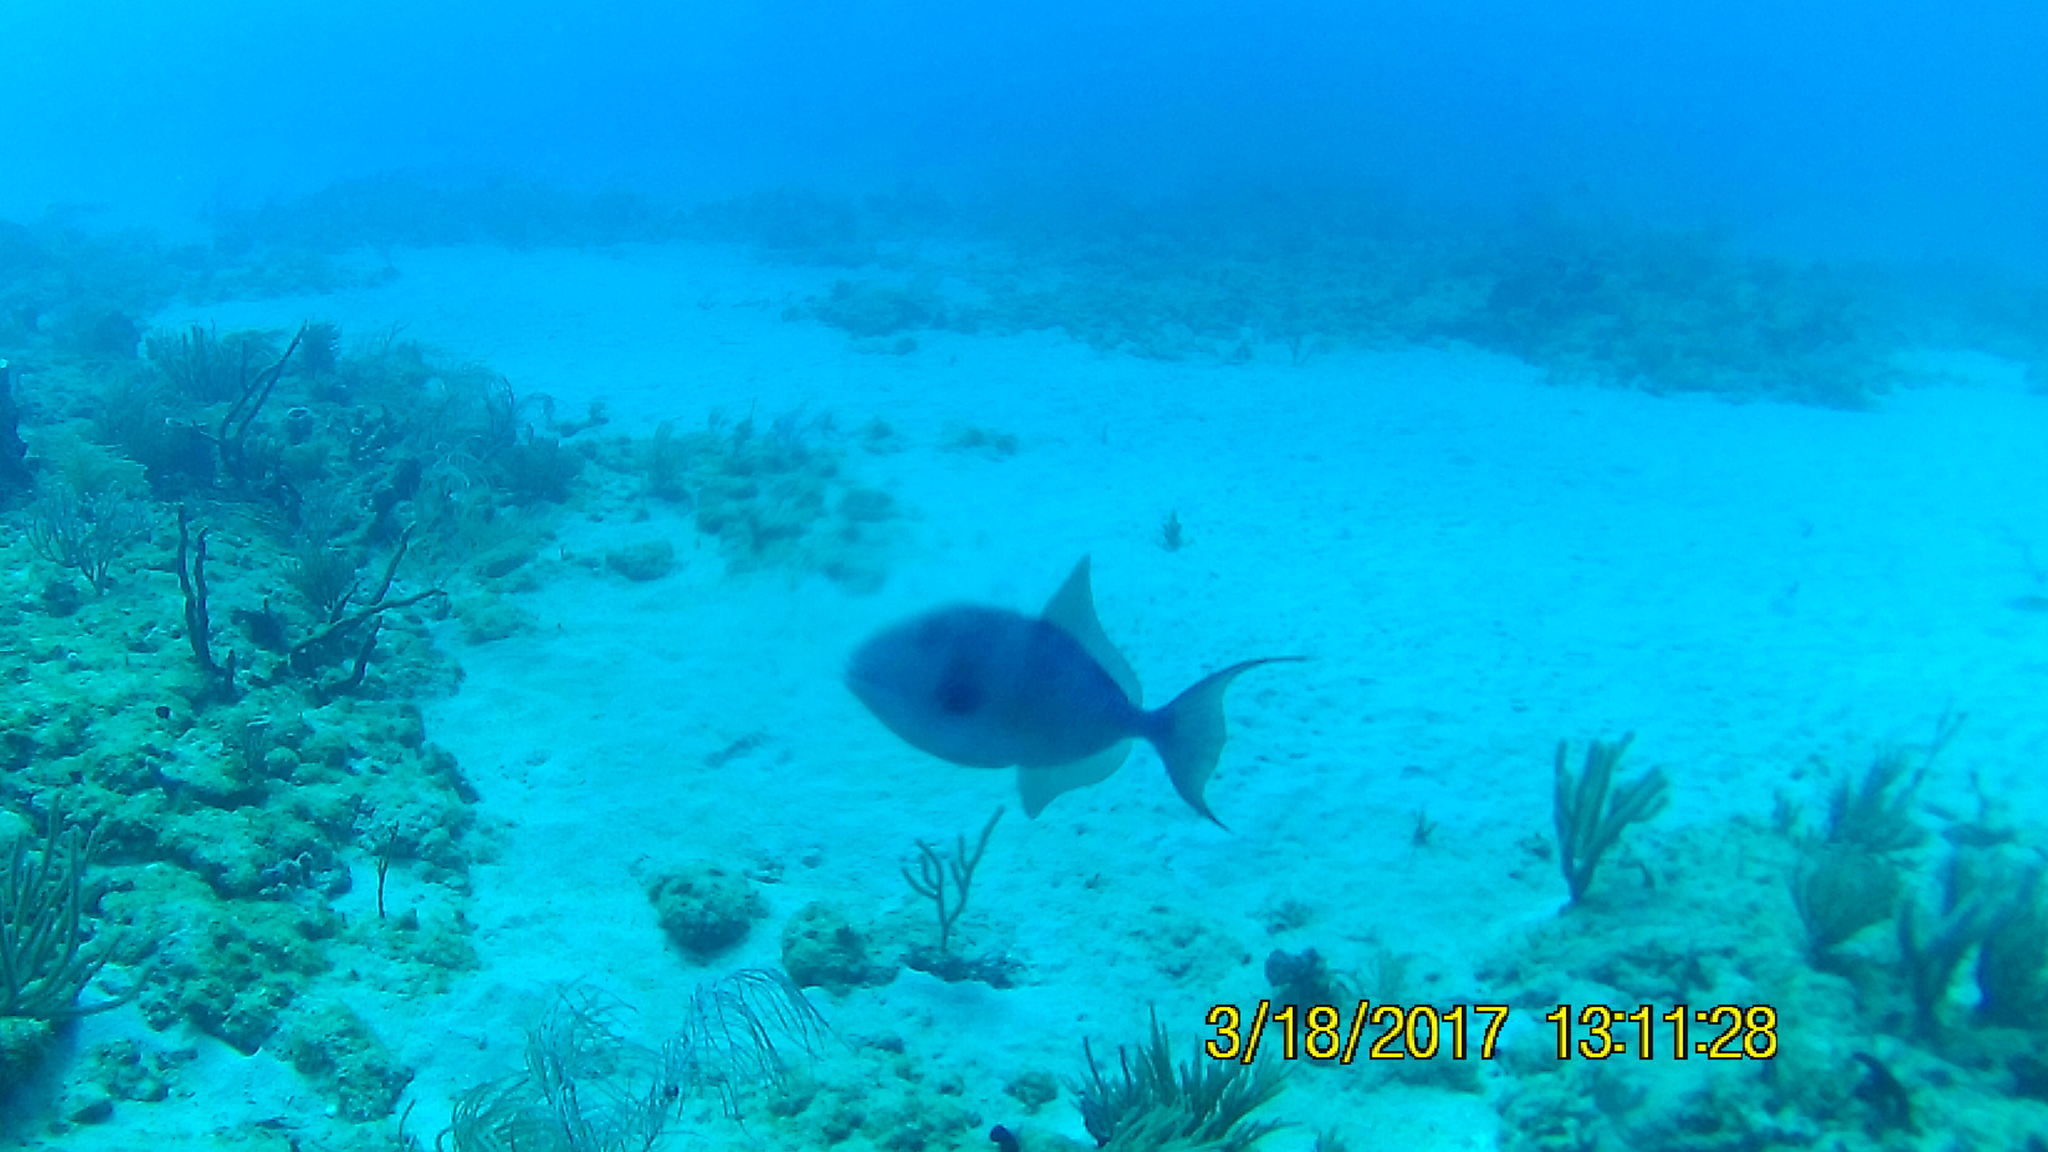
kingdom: Animalia
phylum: Chordata
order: Tetraodontiformes
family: Balistidae
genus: Balistes
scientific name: Balistes capriscus
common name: Grey triggerfish
